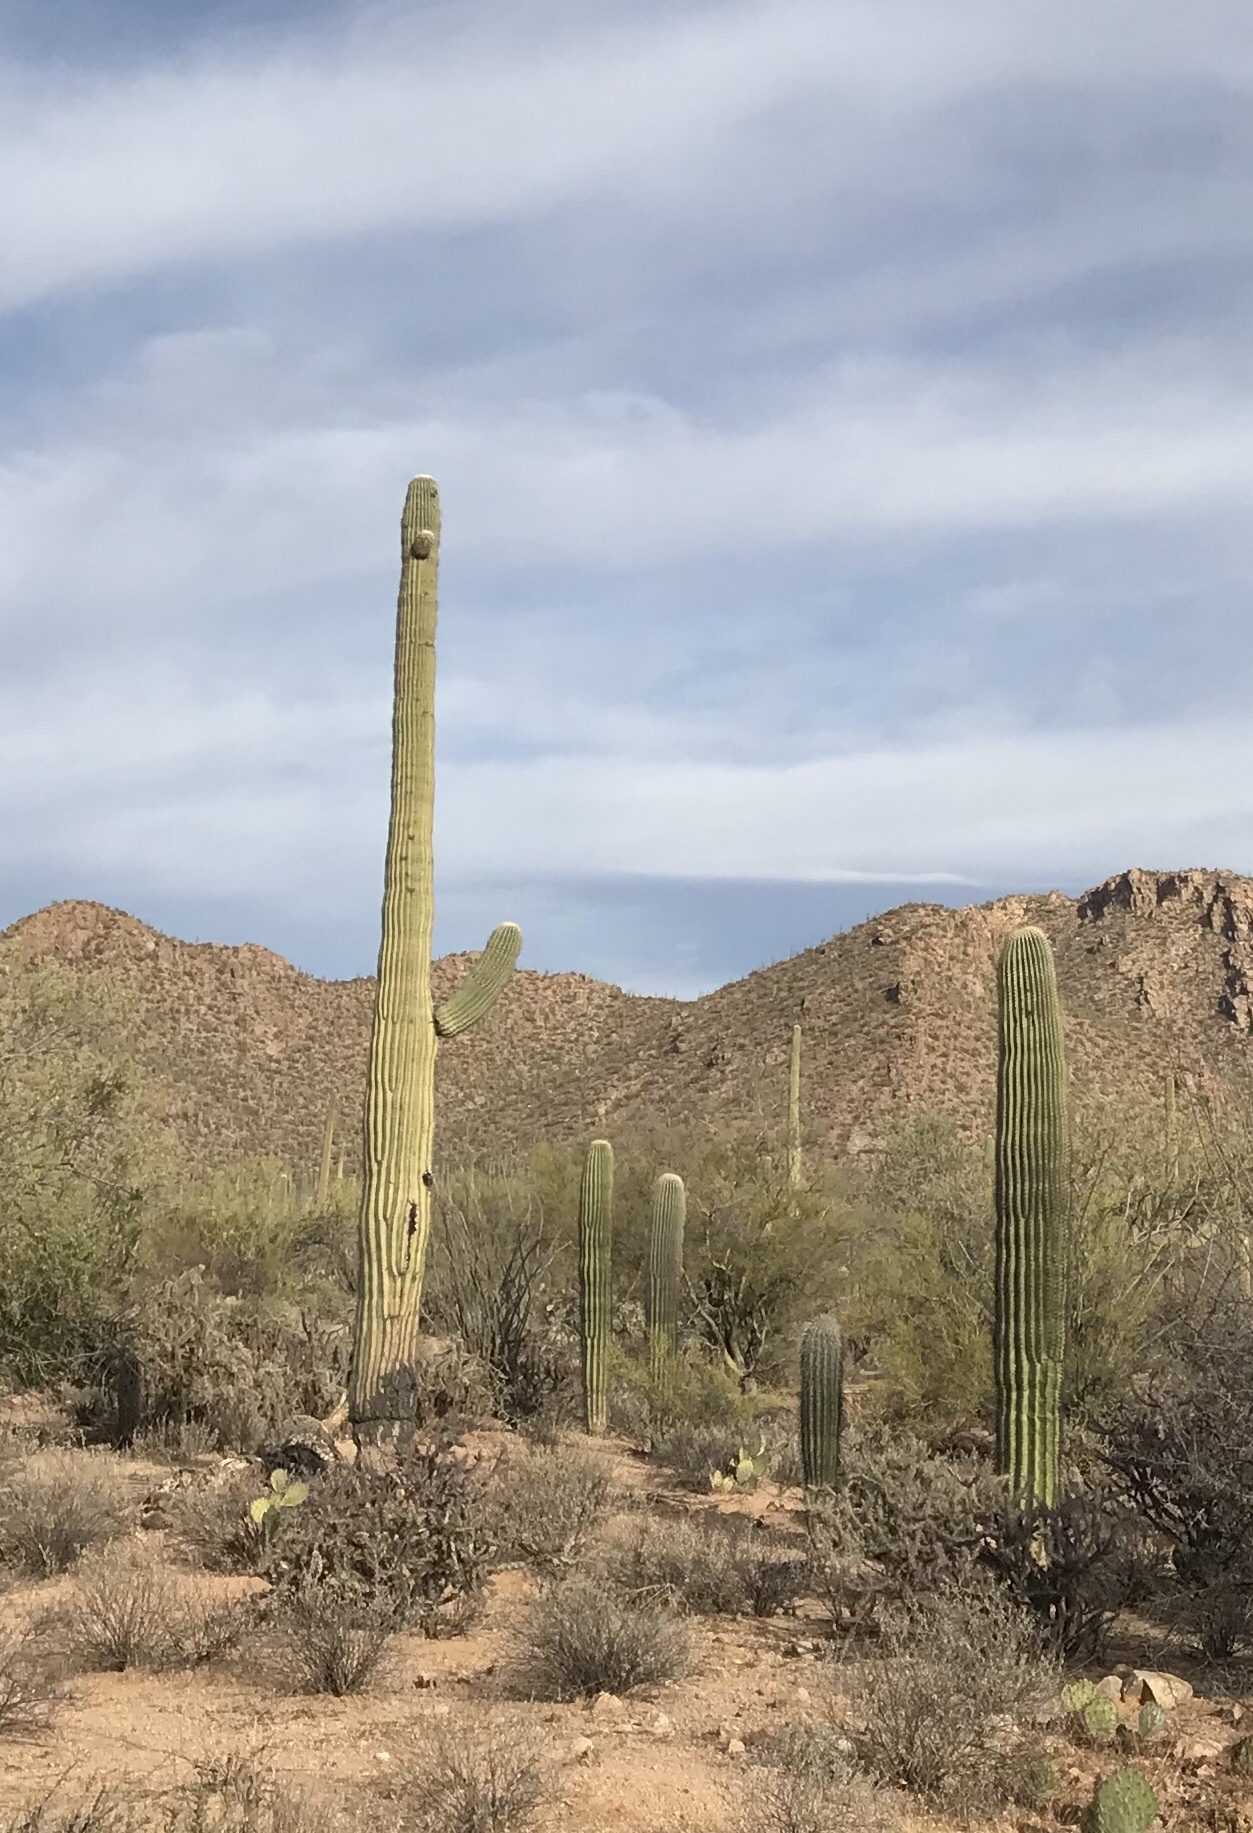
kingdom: Plantae
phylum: Tracheophyta
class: Magnoliopsida
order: Caryophyllales
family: Cactaceae
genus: Carnegiea
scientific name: Carnegiea gigantea
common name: Saguaro
